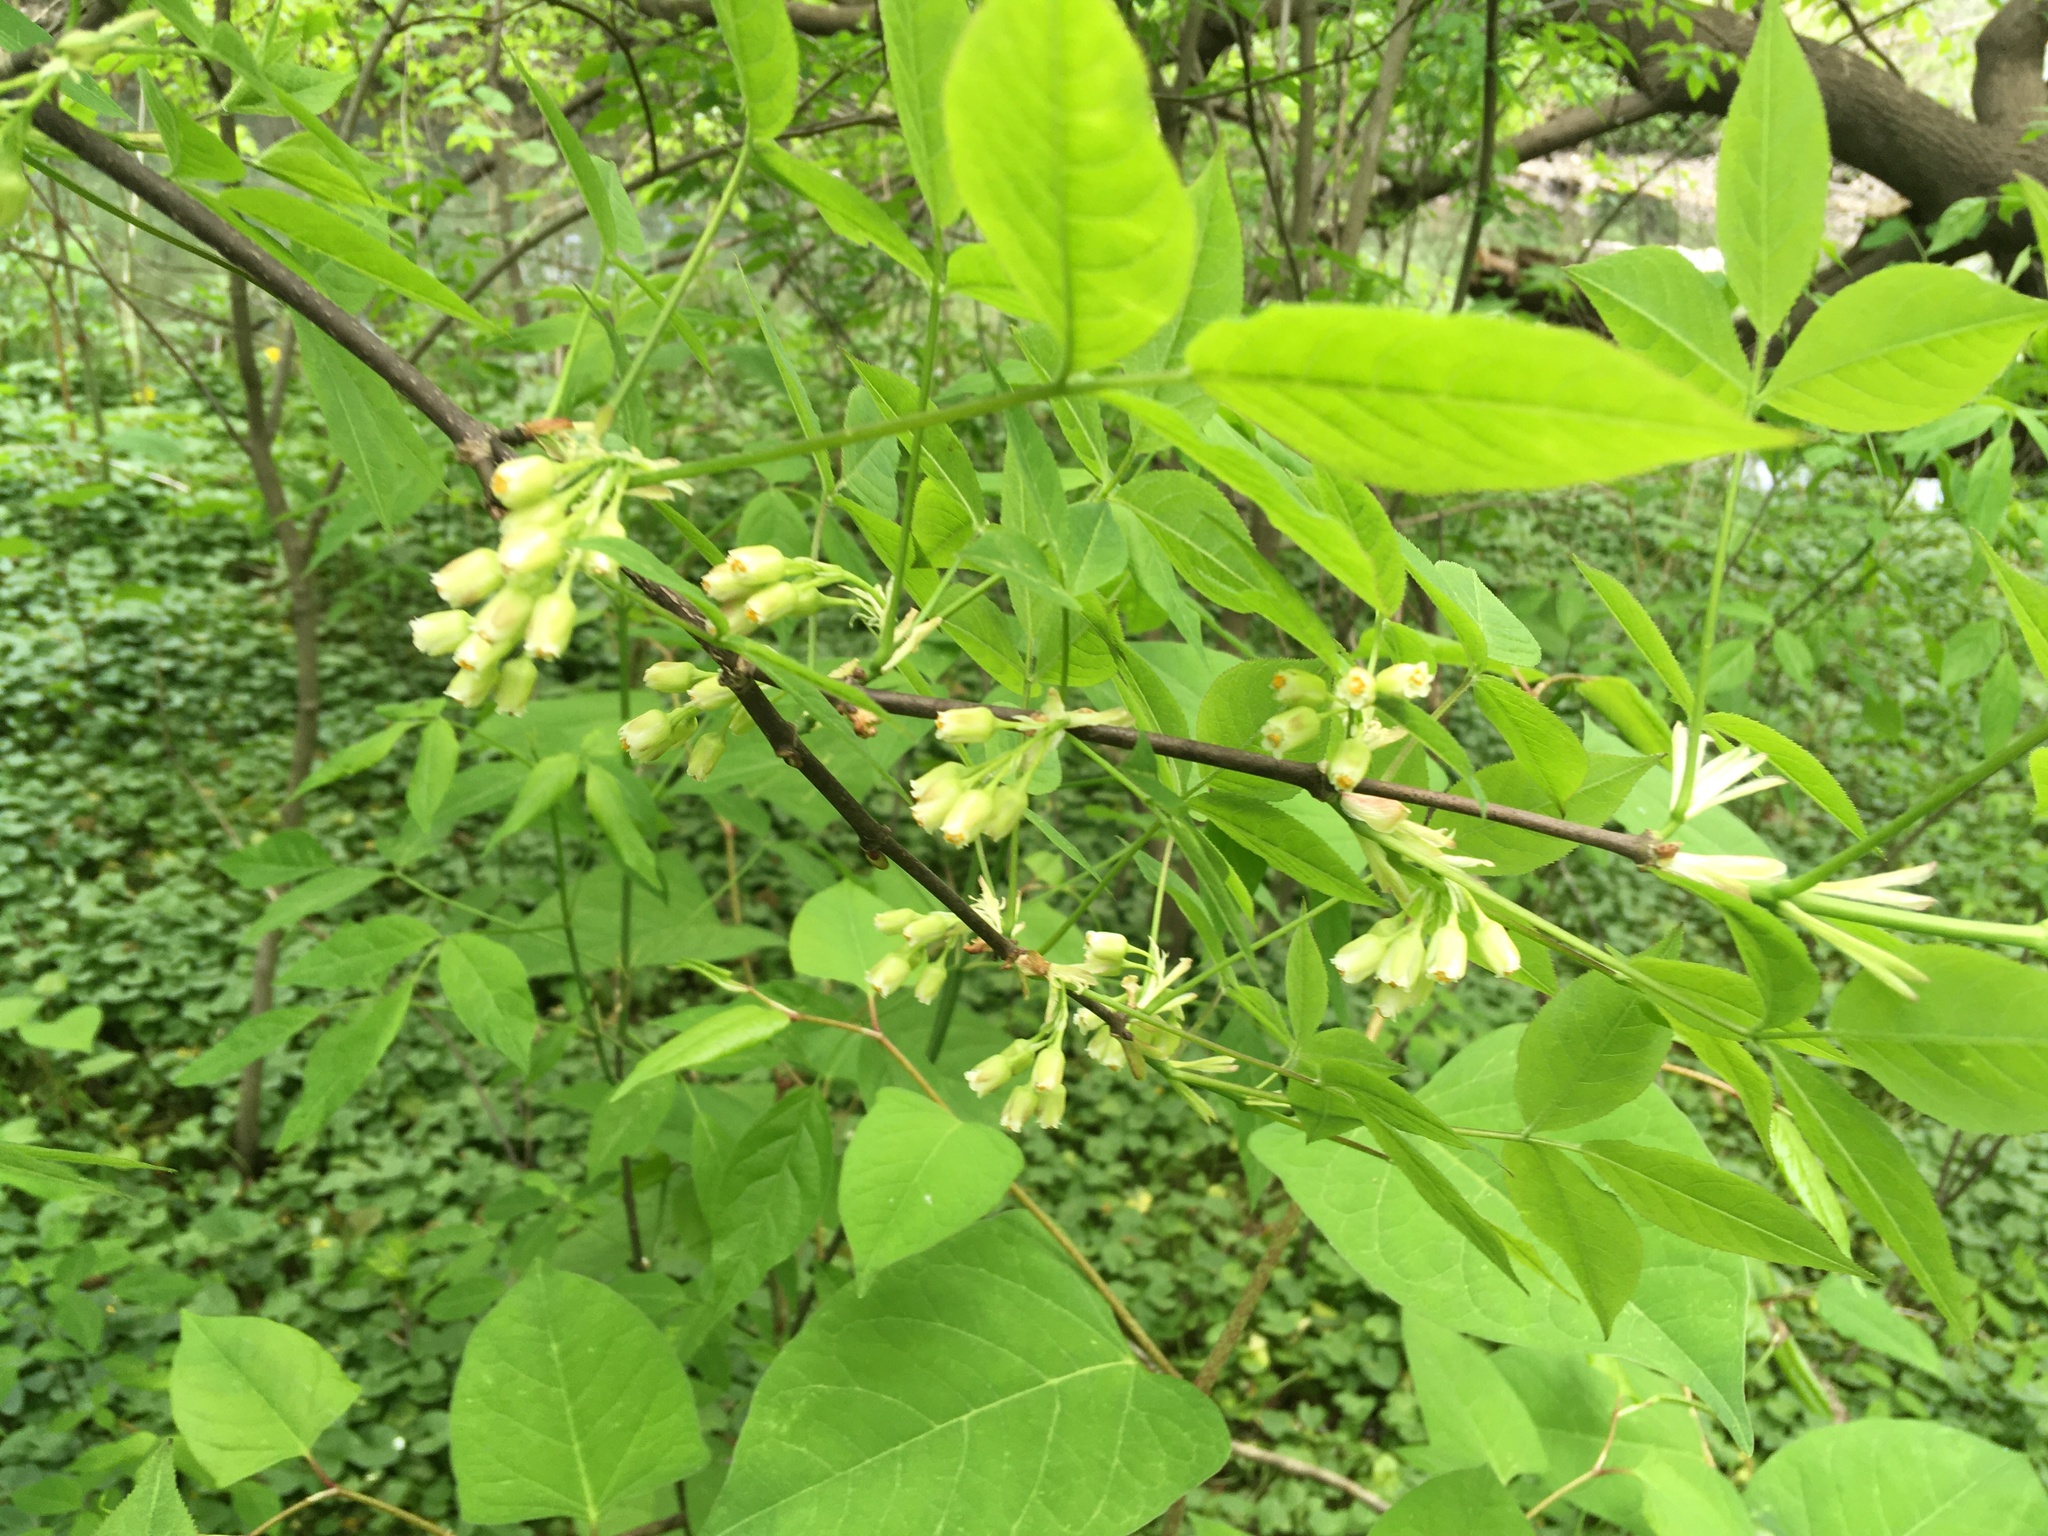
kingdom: Plantae
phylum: Tracheophyta
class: Magnoliopsida
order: Crossosomatales
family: Staphyleaceae
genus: Staphylea
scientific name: Staphylea trifolia
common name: American bladdernut
